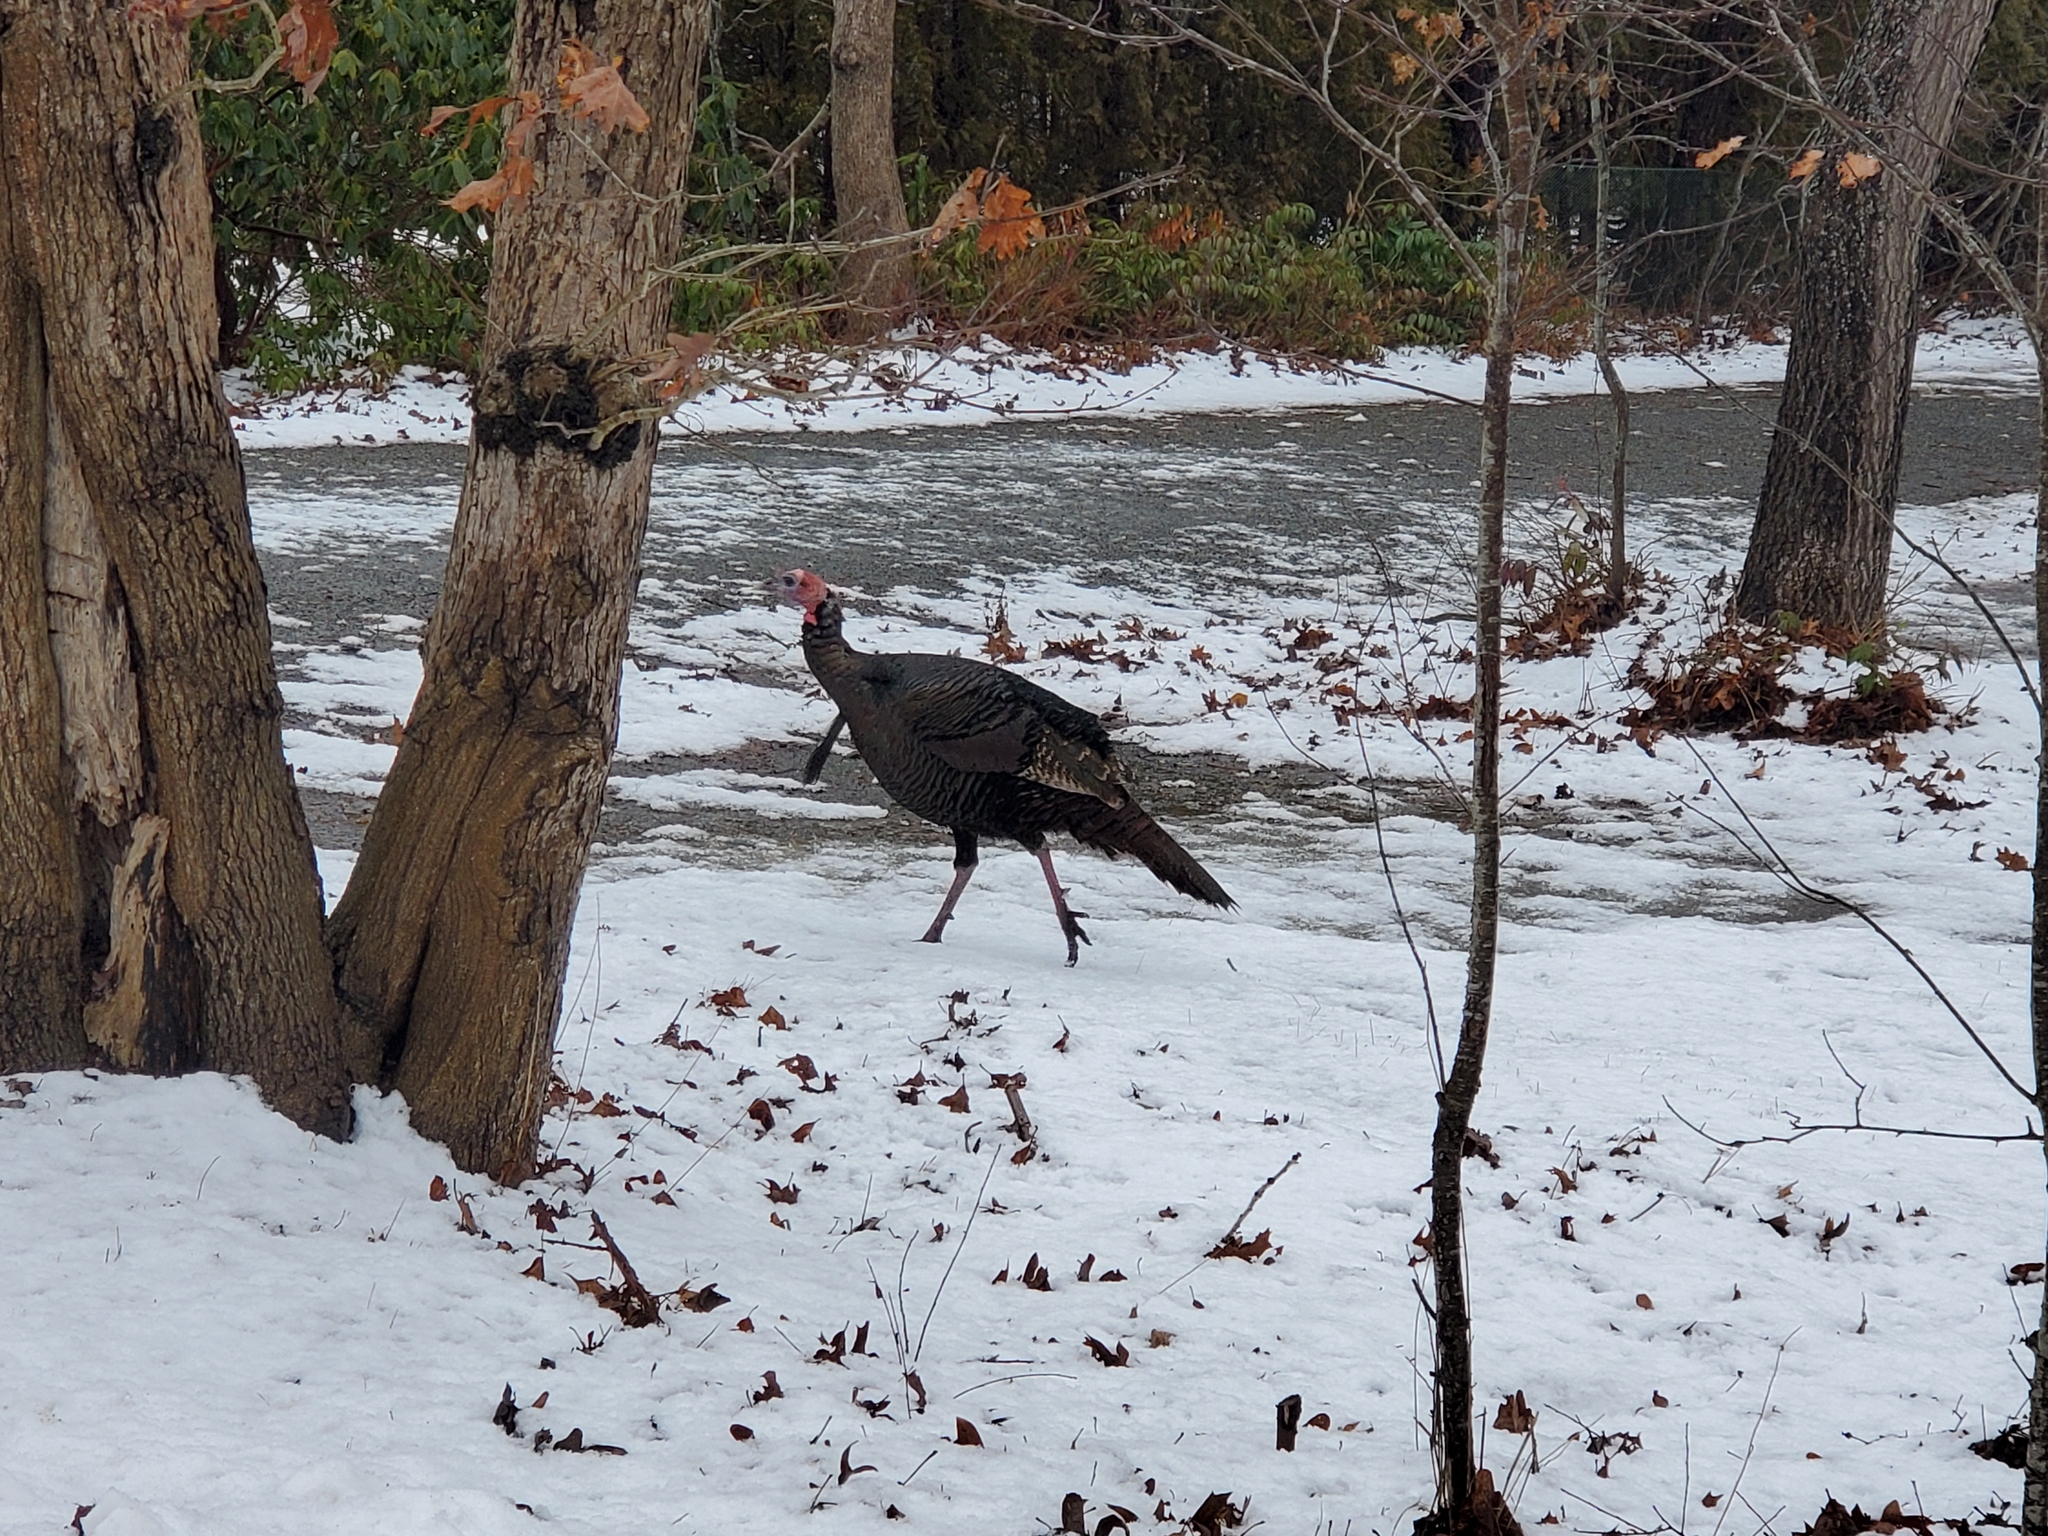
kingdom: Animalia
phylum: Chordata
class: Aves
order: Galliformes
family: Phasianidae
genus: Meleagris
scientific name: Meleagris gallopavo
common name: Wild turkey
